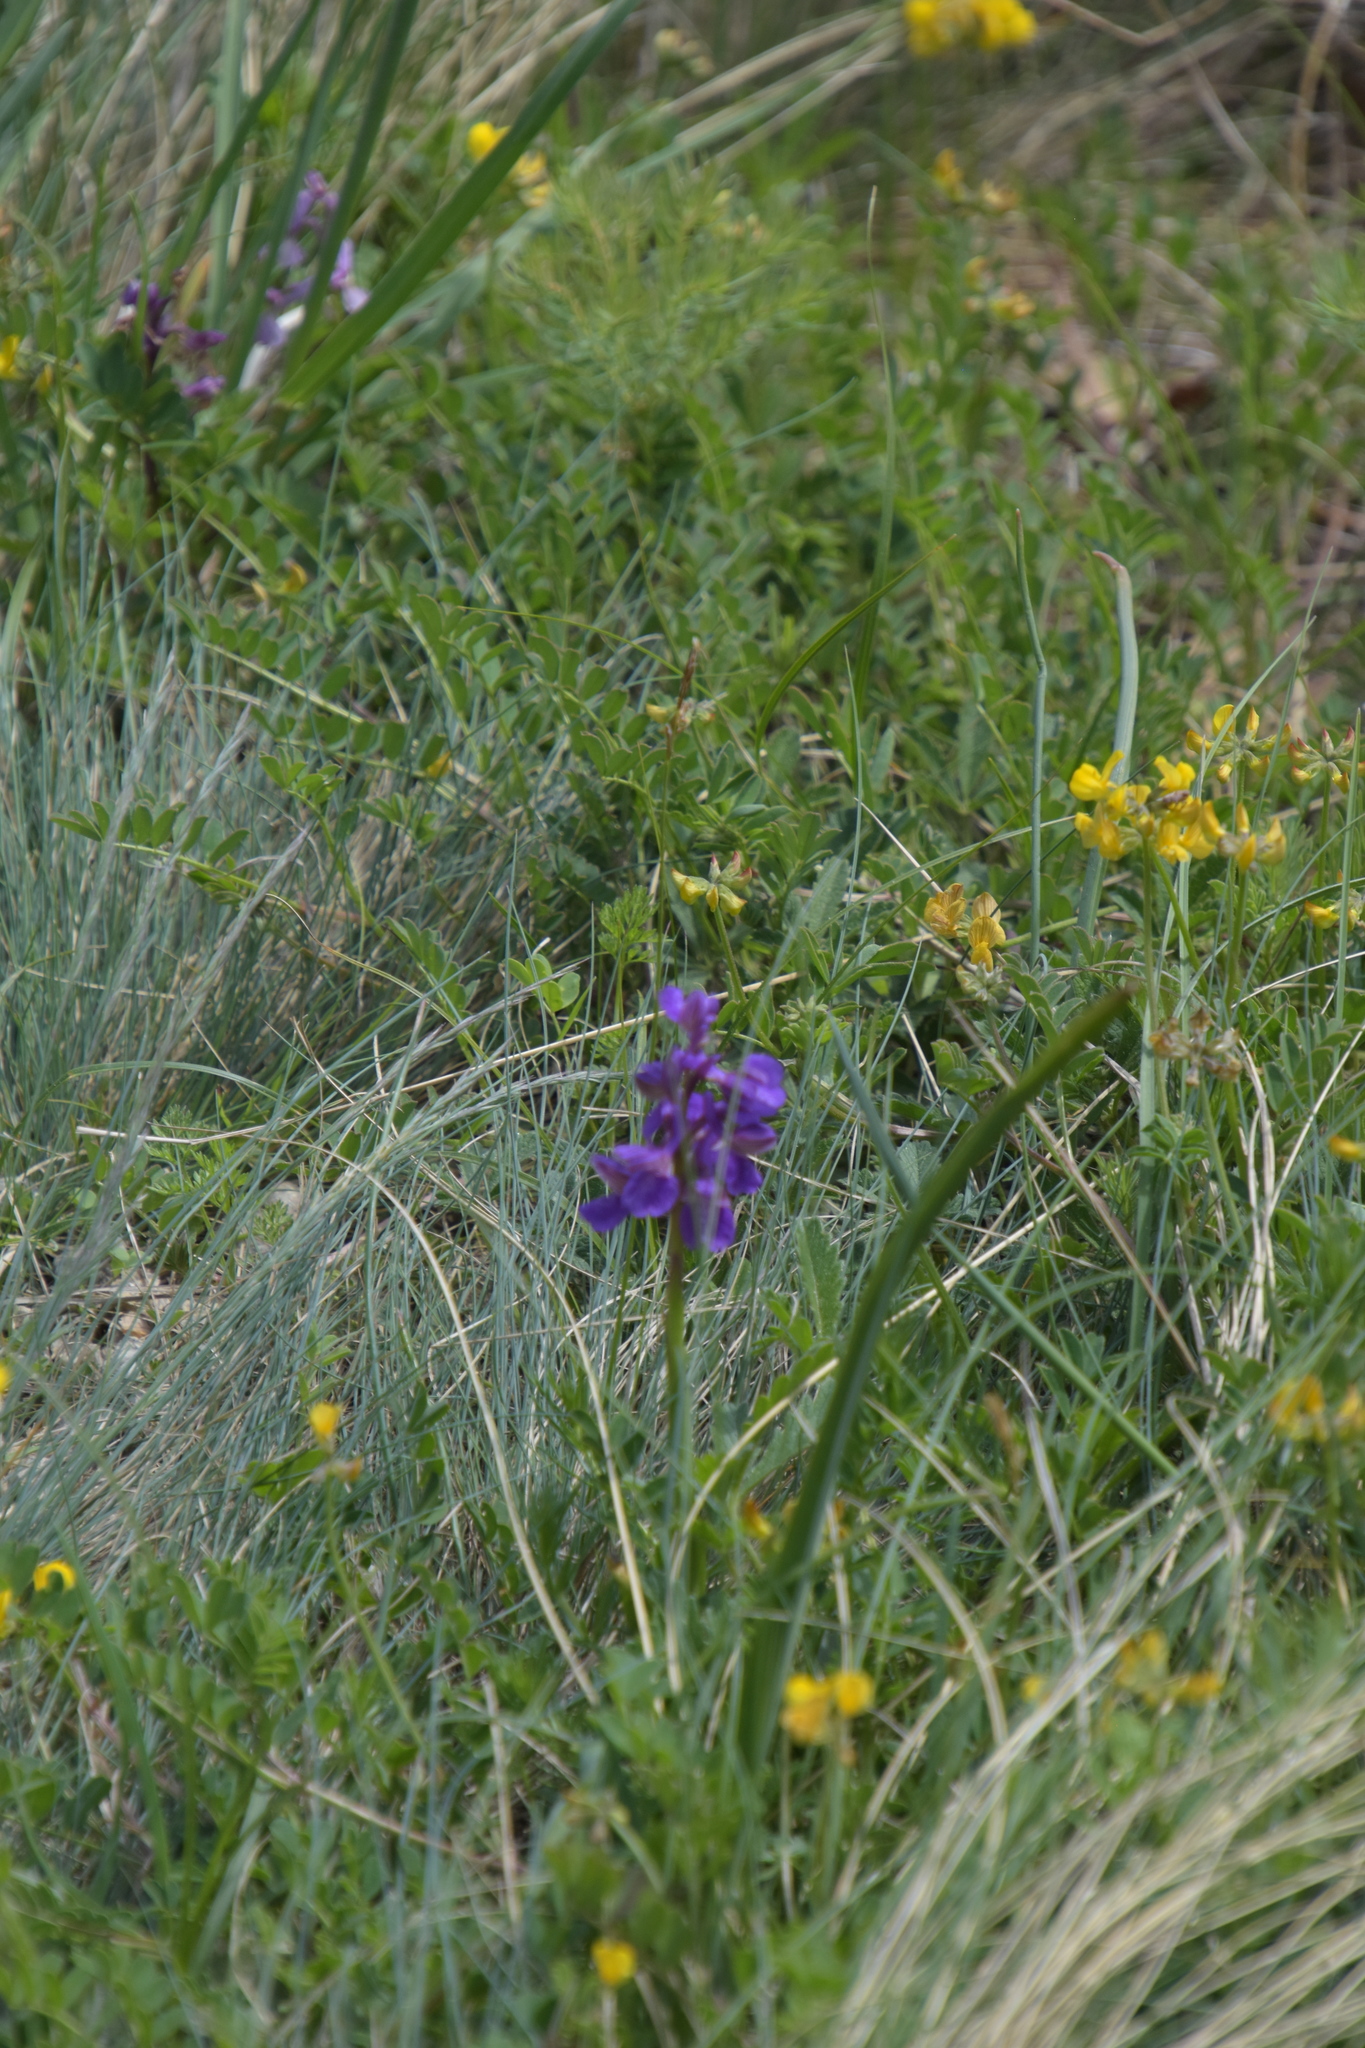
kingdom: Plantae
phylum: Tracheophyta
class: Liliopsida
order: Asparagales
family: Orchidaceae
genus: Anacamptis
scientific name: Anacamptis morio
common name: Green-winged orchid
